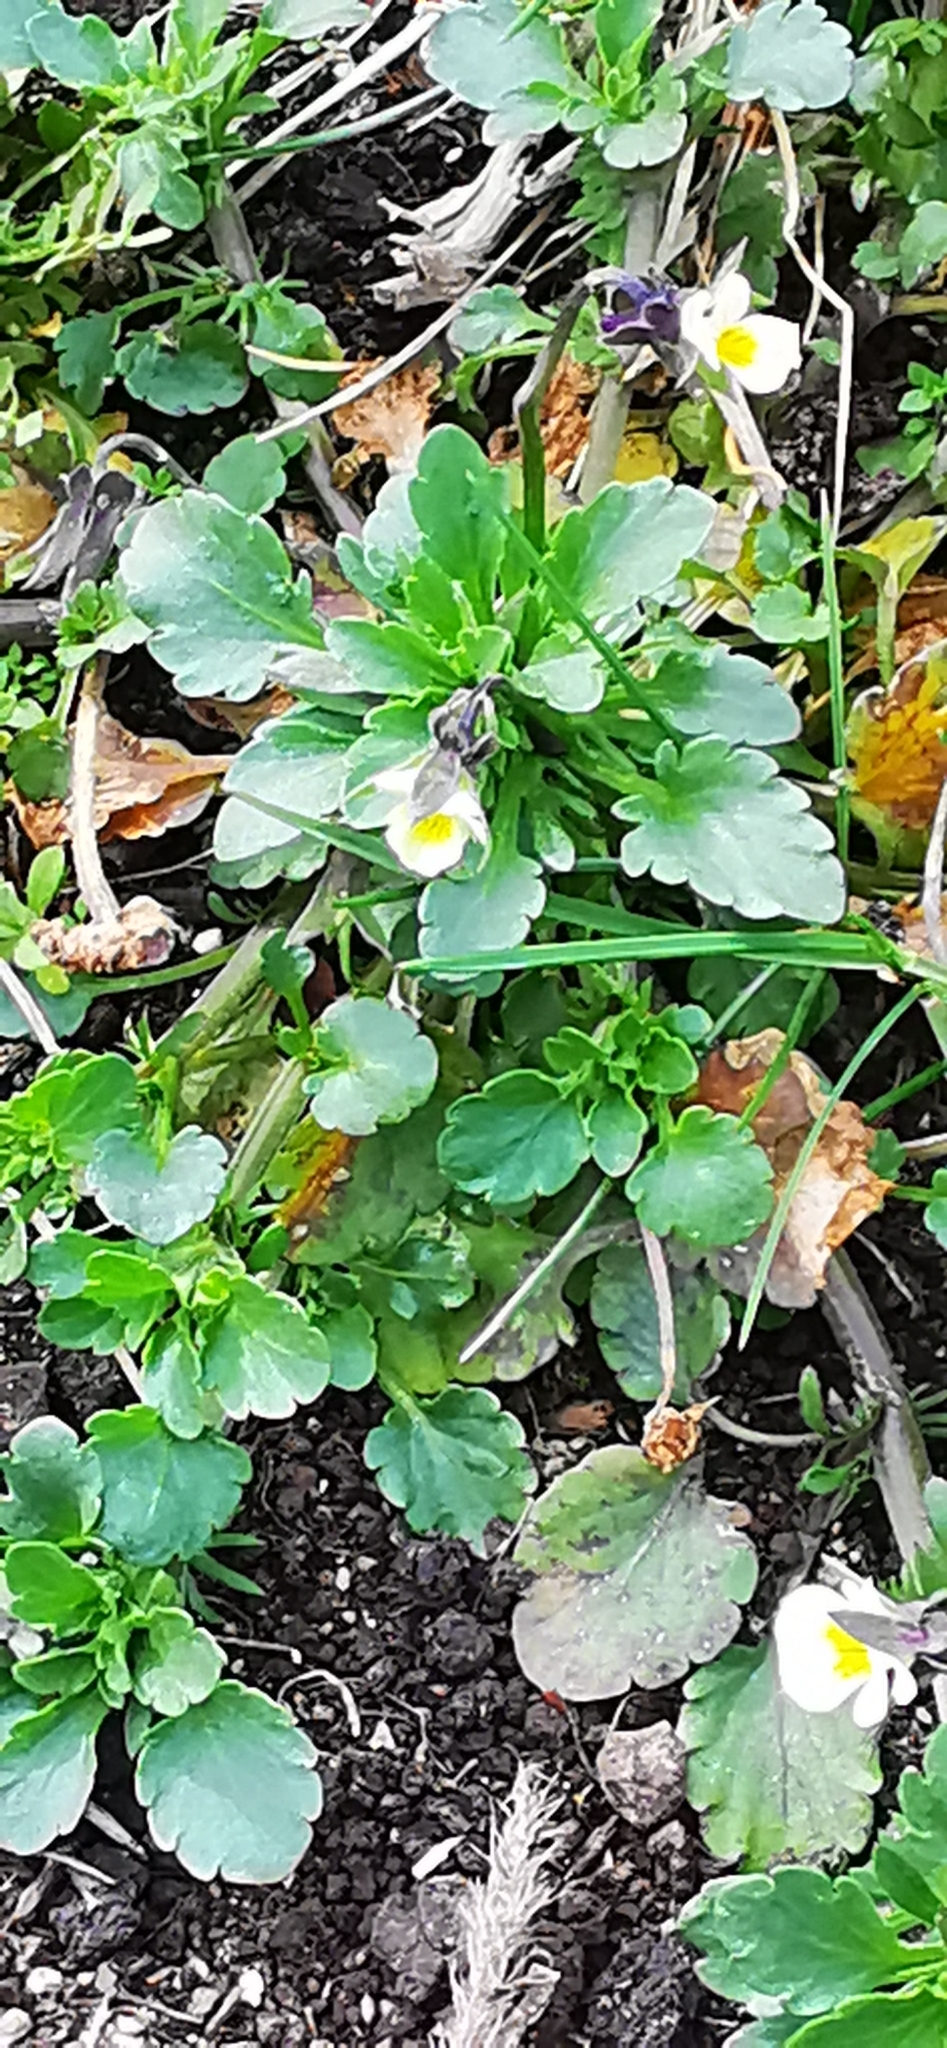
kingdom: Plantae
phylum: Tracheophyta
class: Magnoliopsida
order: Malpighiales
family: Violaceae
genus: Viola
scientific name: Viola arvensis
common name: Field pansy
